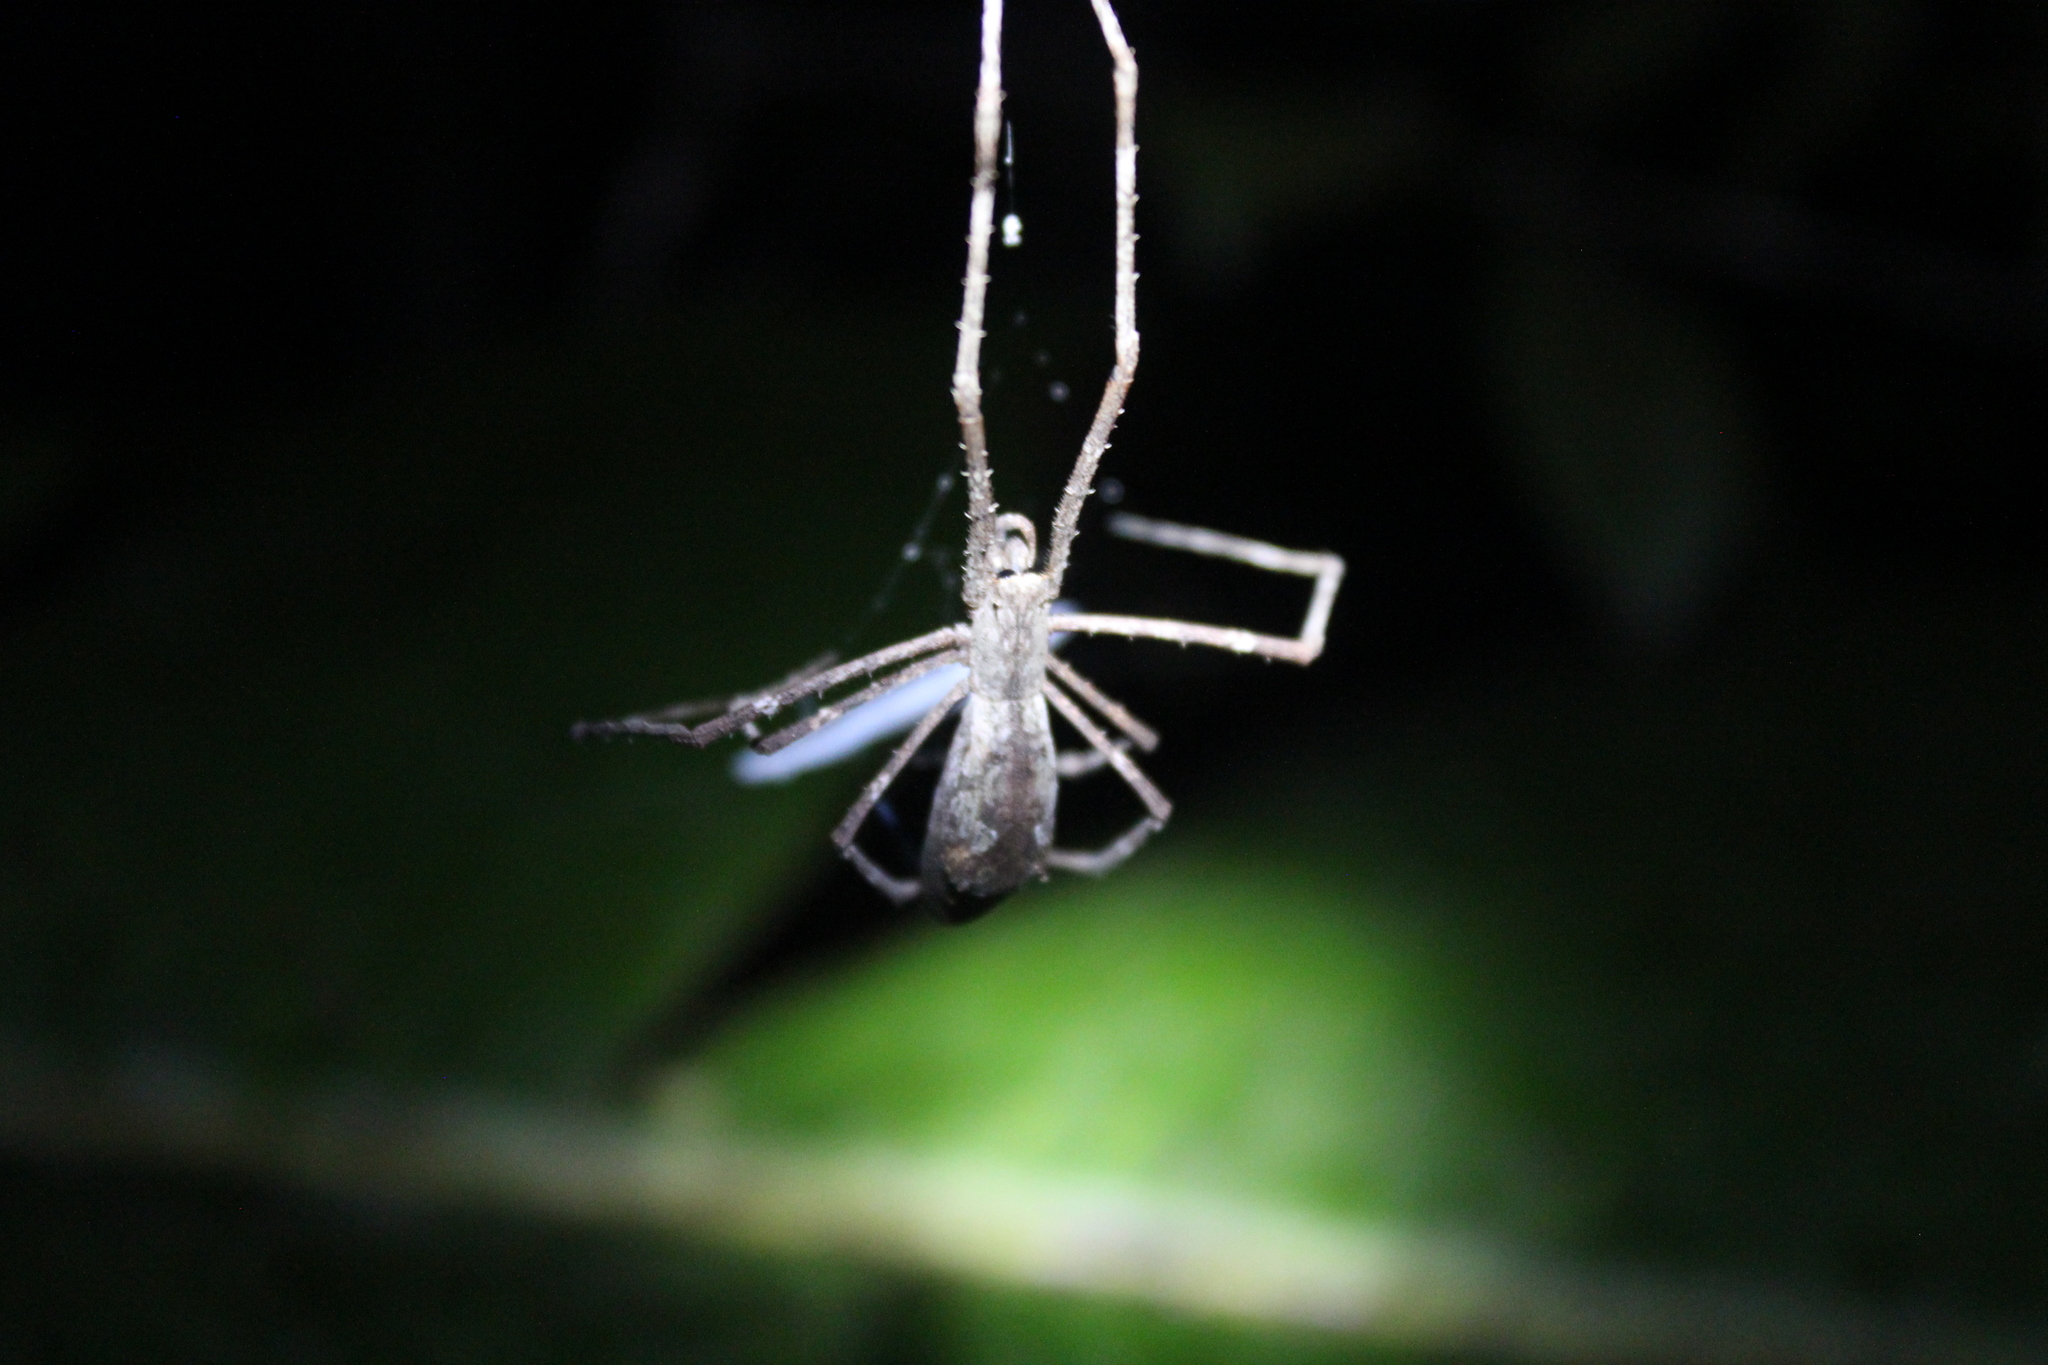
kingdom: Animalia
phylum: Arthropoda
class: Arachnida
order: Araneae
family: Deinopidae
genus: Deinopis
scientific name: Deinopis madagascariensis
